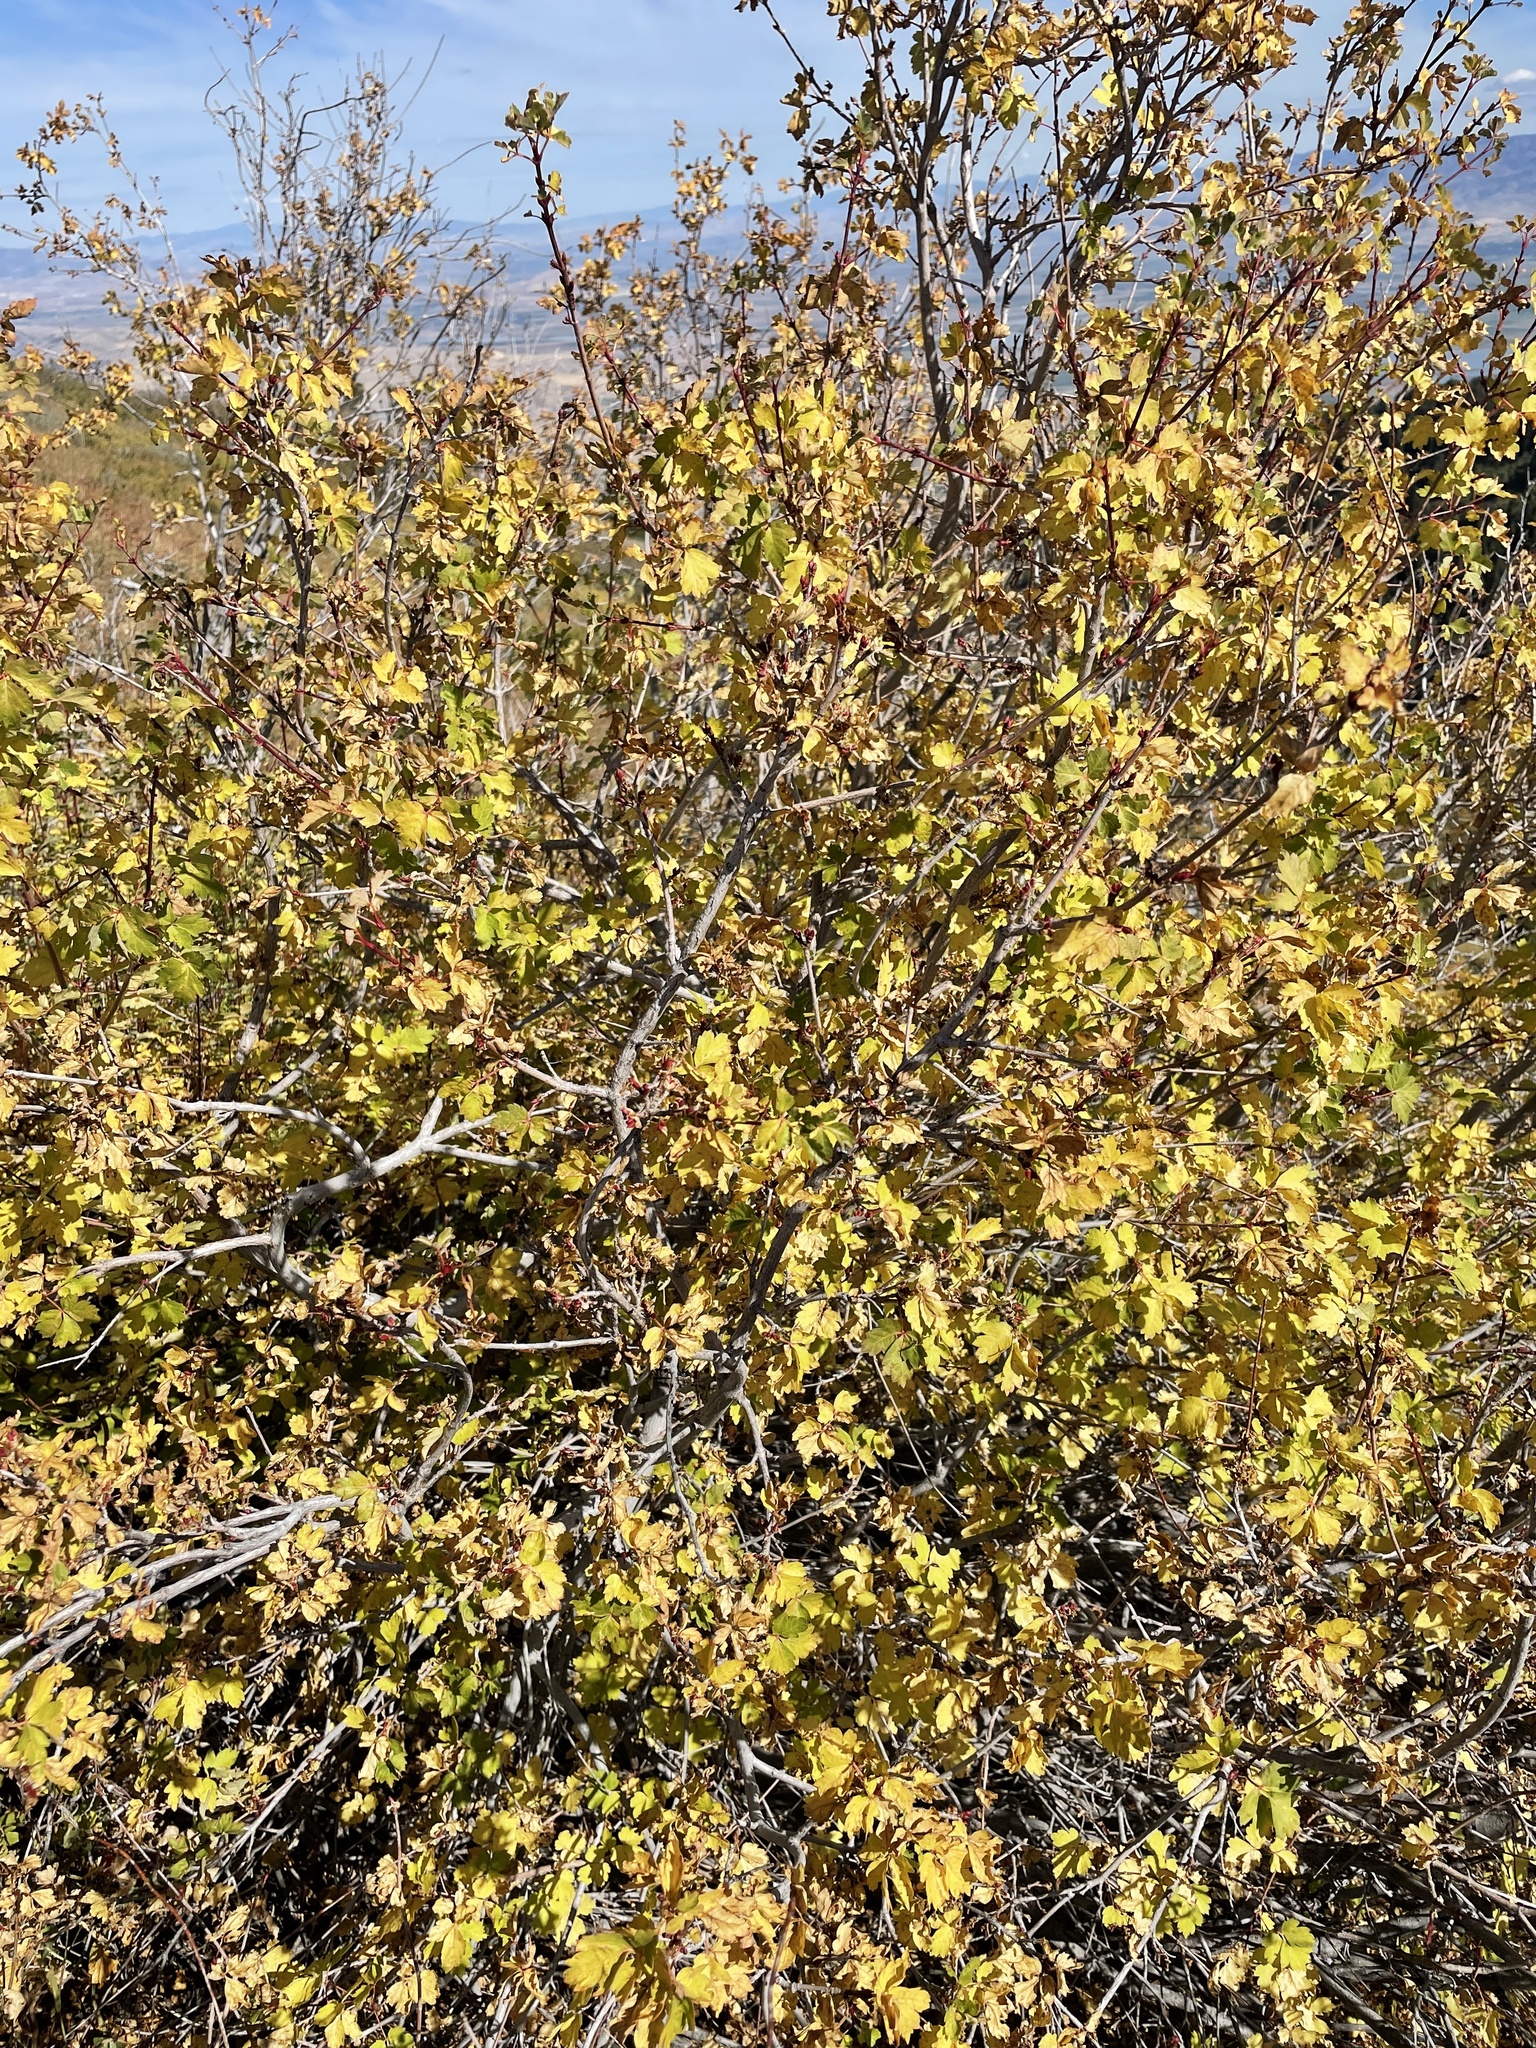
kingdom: Plantae
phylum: Tracheophyta
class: Magnoliopsida
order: Sapindales
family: Sapindaceae
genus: Acer
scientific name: Acer glabrum
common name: Rocky mountain maple
